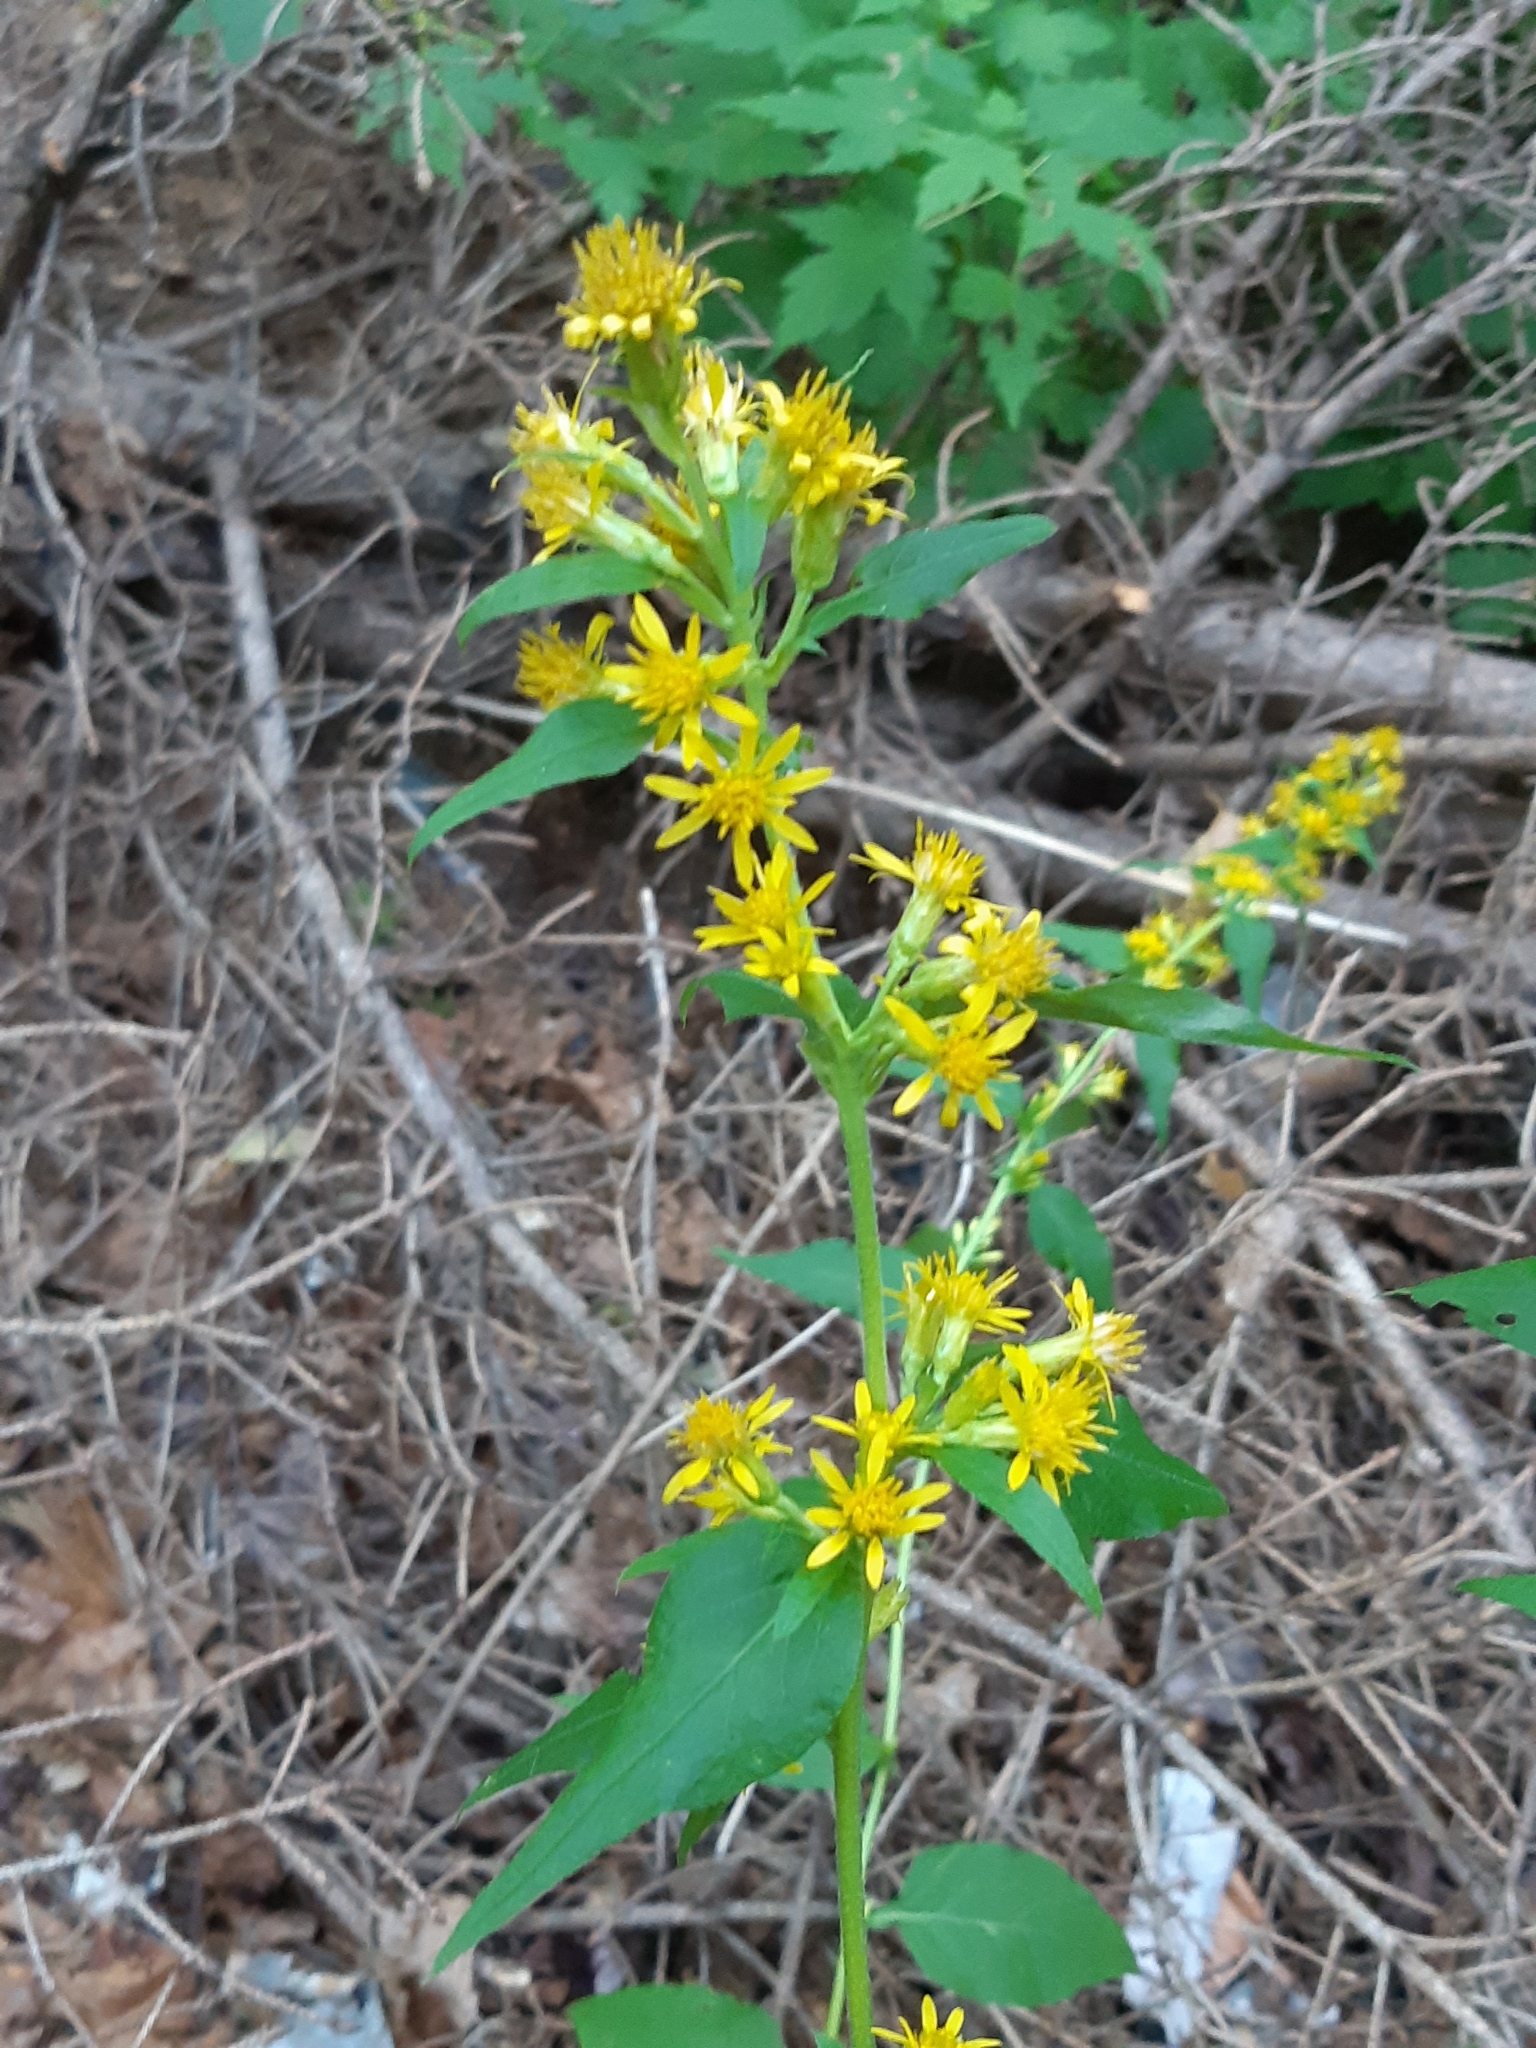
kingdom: Plantae
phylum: Tracheophyta
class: Magnoliopsida
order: Asterales
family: Asteraceae
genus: Solidago
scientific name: Solidago macrophylla
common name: Large-leaved goldenrod
